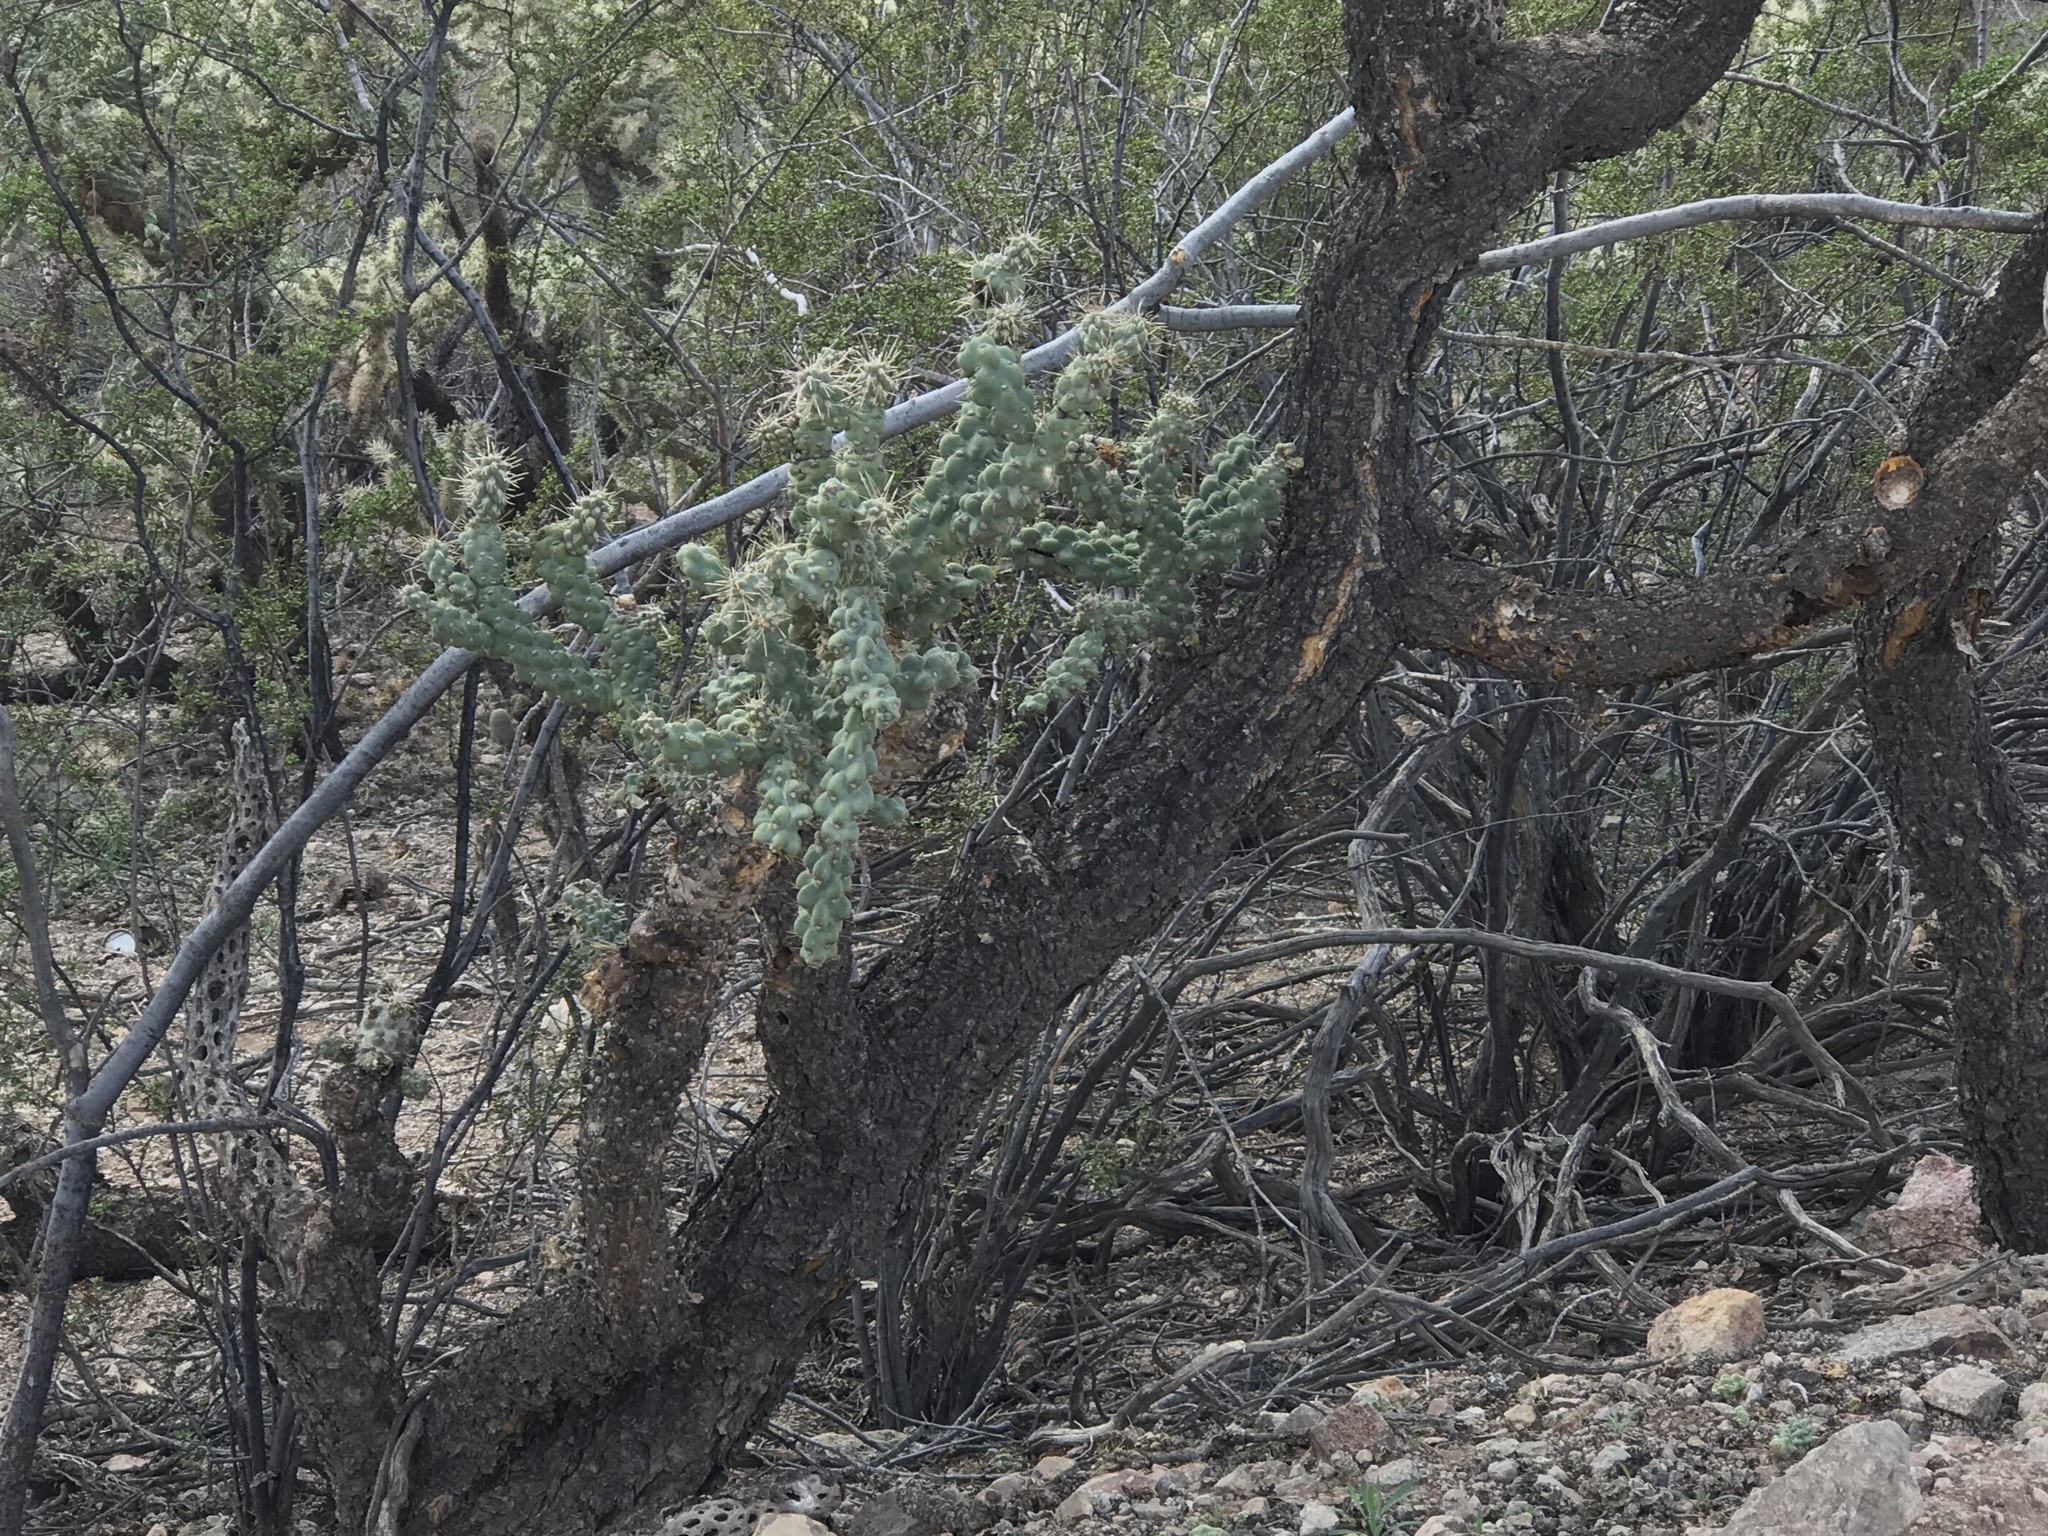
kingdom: Plantae
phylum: Tracheophyta
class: Magnoliopsida
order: Caryophyllales
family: Cactaceae
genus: Cylindropuntia
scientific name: Cylindropuntia fulgida
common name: Jumping cholla
